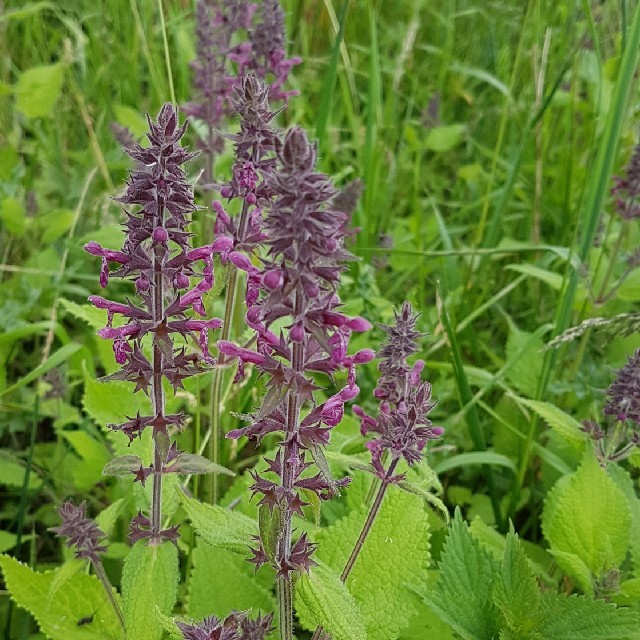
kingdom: Plantae
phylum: Tracheophyta
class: Magnoliopsida
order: Lamiales
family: Lamiaceae
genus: Stachys
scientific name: Stachys sylvatica
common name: Hedge woundwort
